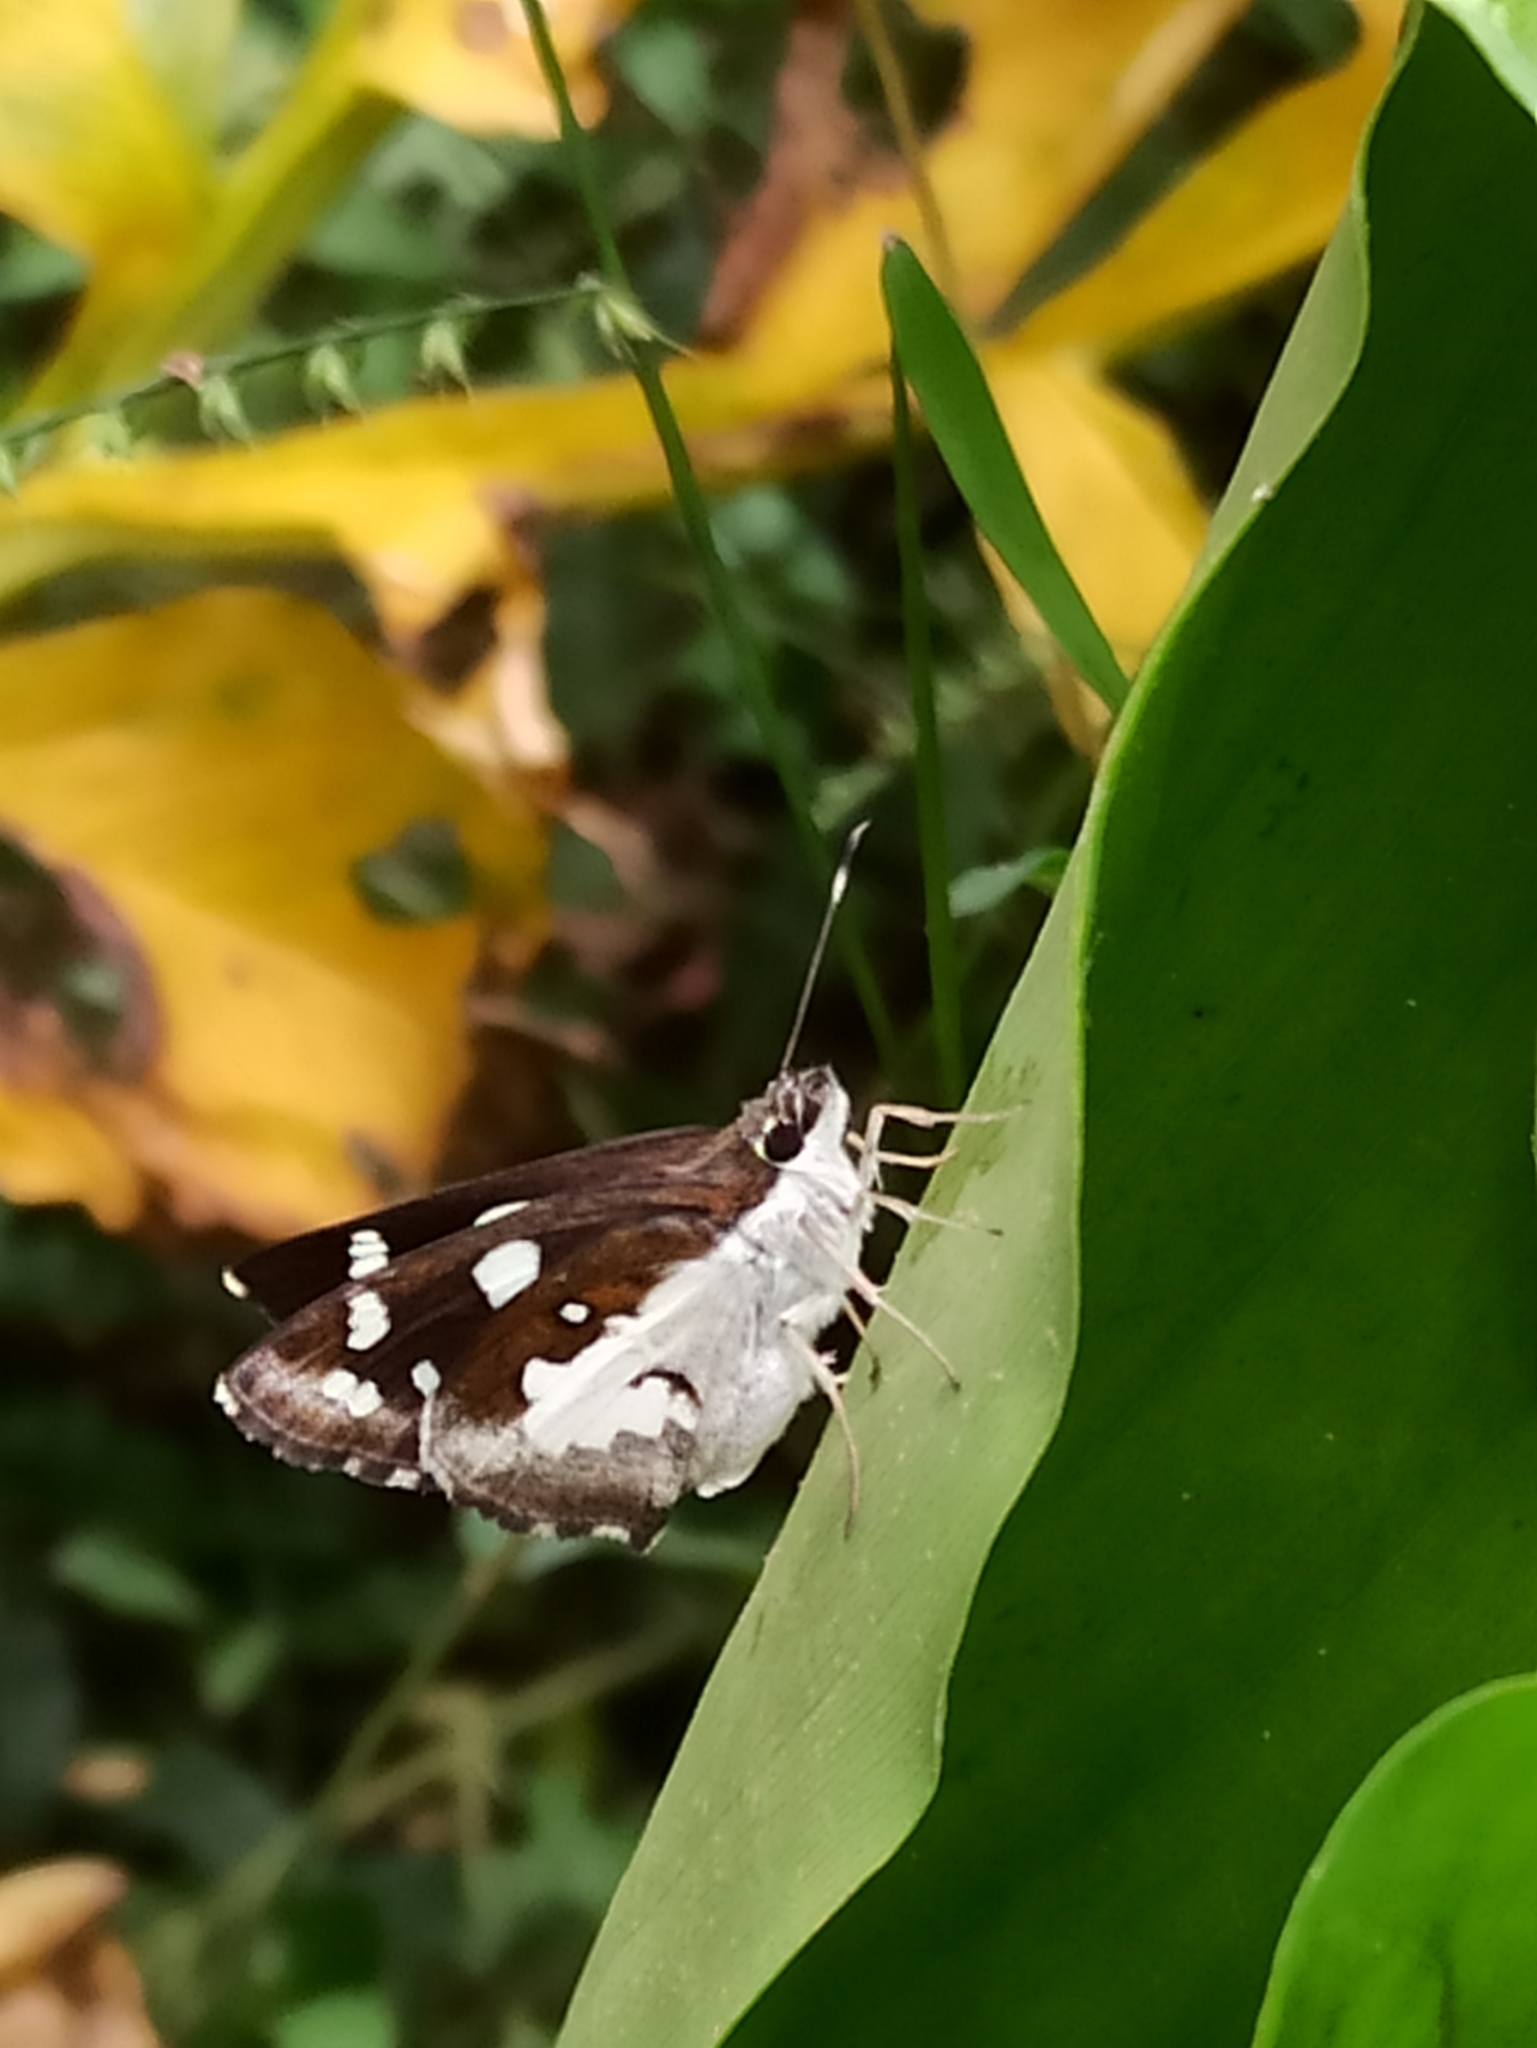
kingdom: Animalia
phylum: Arthropoda
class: Insecta
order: Lepidoptera
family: Hesperiidae
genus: Udaspes
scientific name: Udaspes folus
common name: Grass demon
